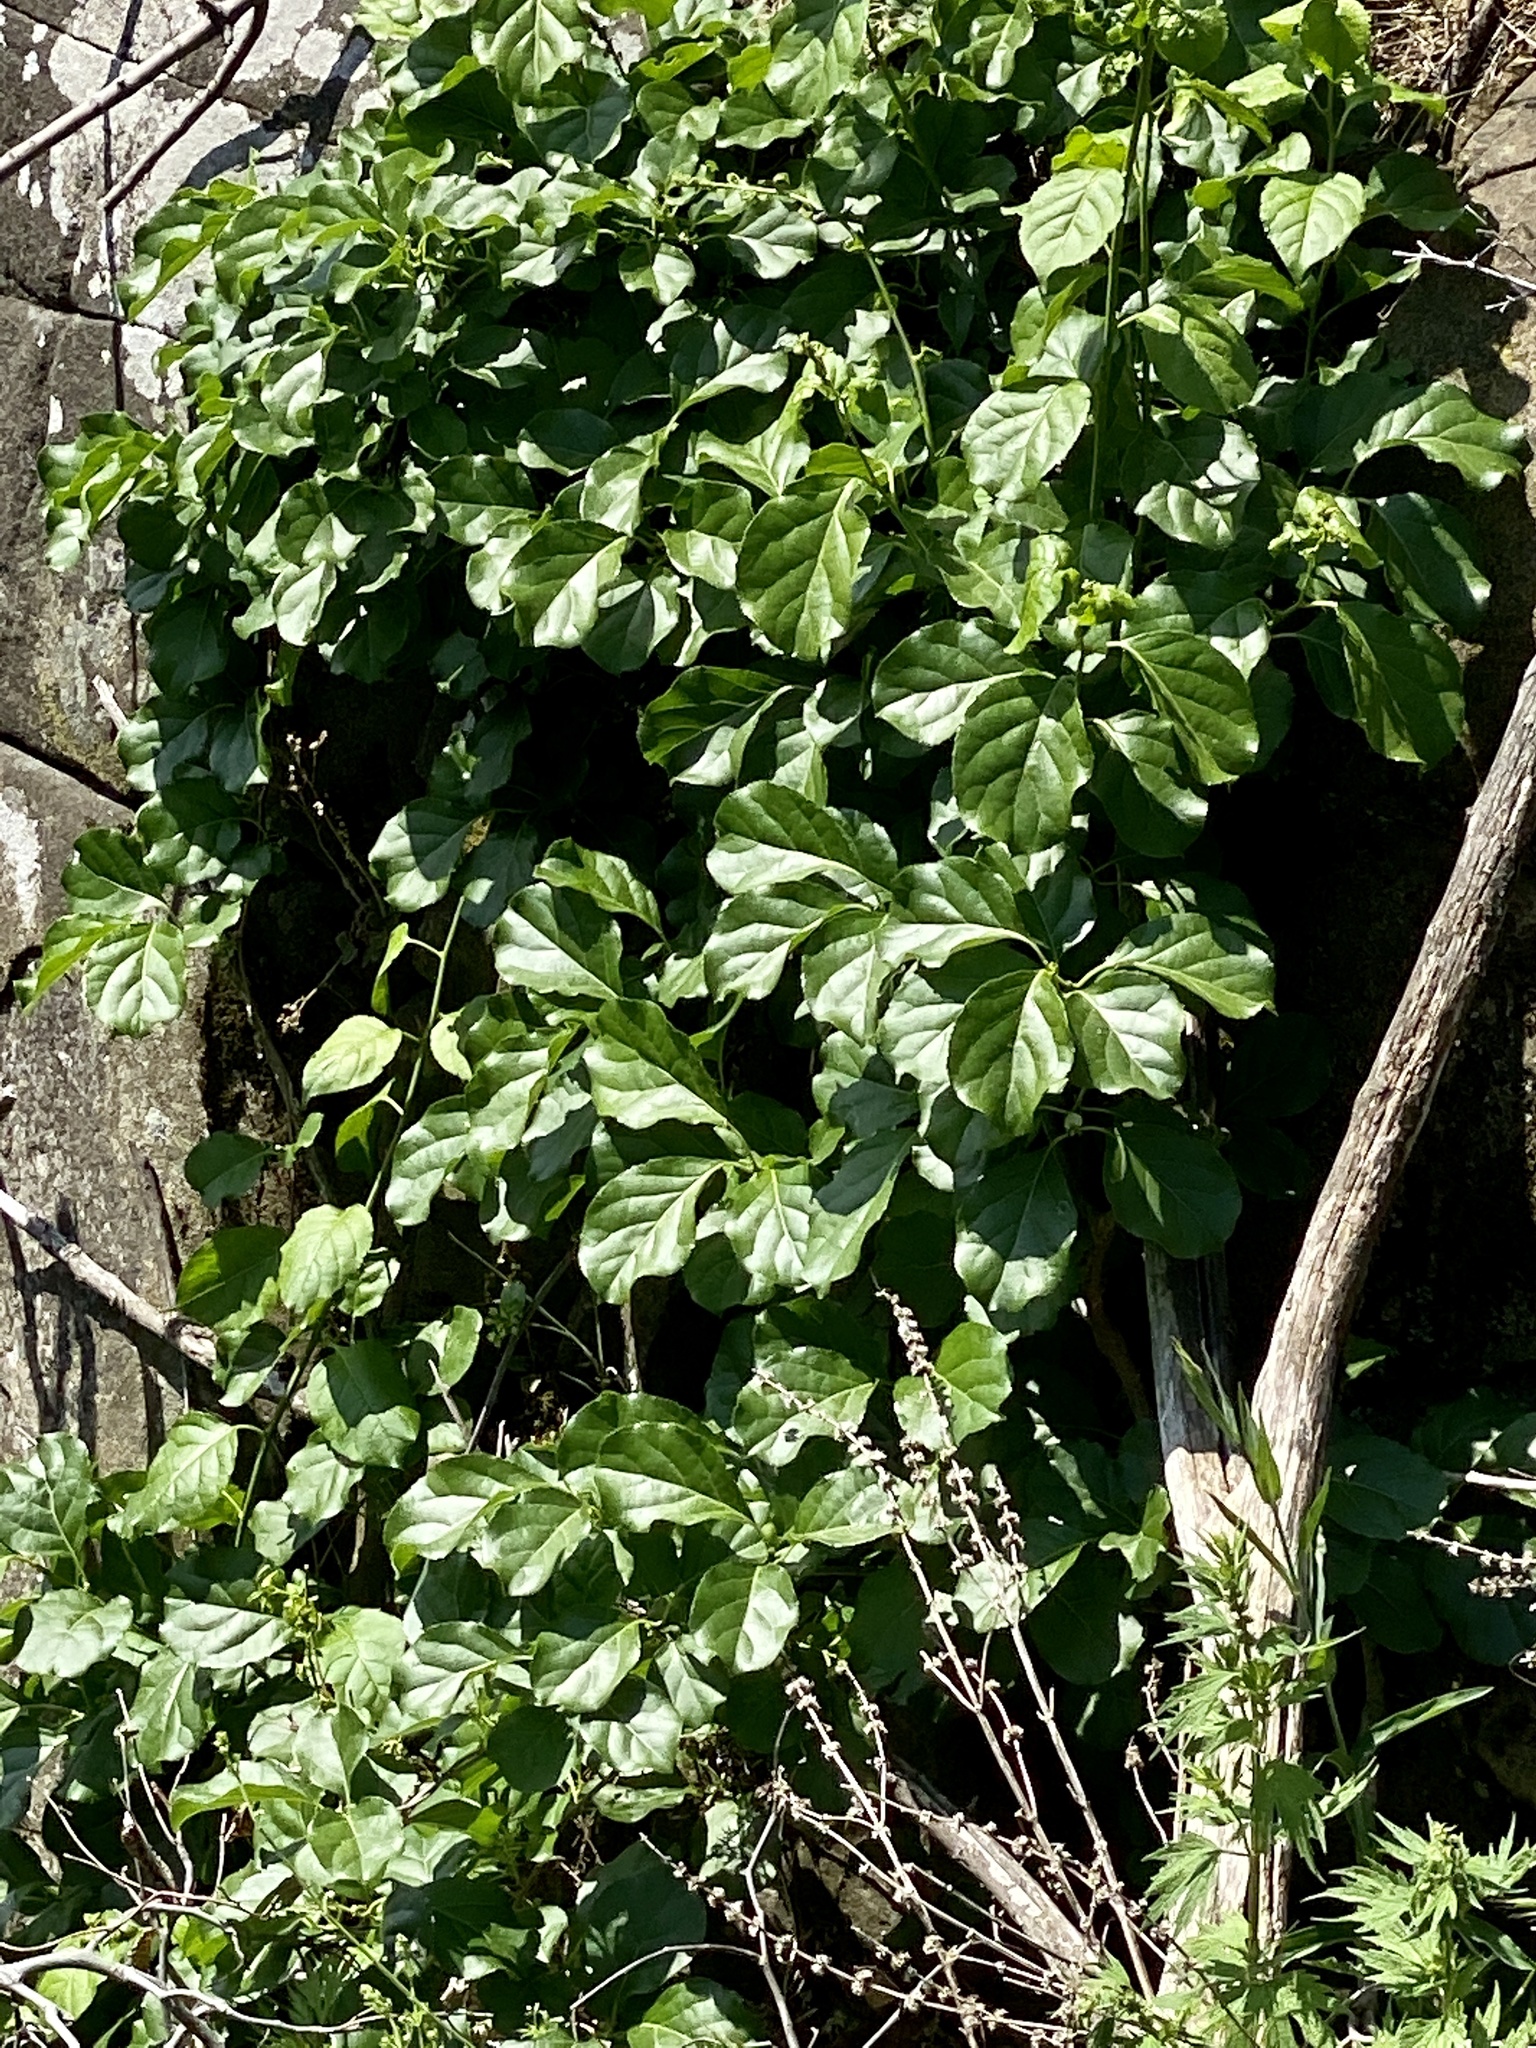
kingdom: Plantae
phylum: Tracheophyta
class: Magnoliopsida
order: Celastrales
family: Celastraceae
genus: Celastrus
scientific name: Celastrus orbiculatus
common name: Oriental bittersweet
